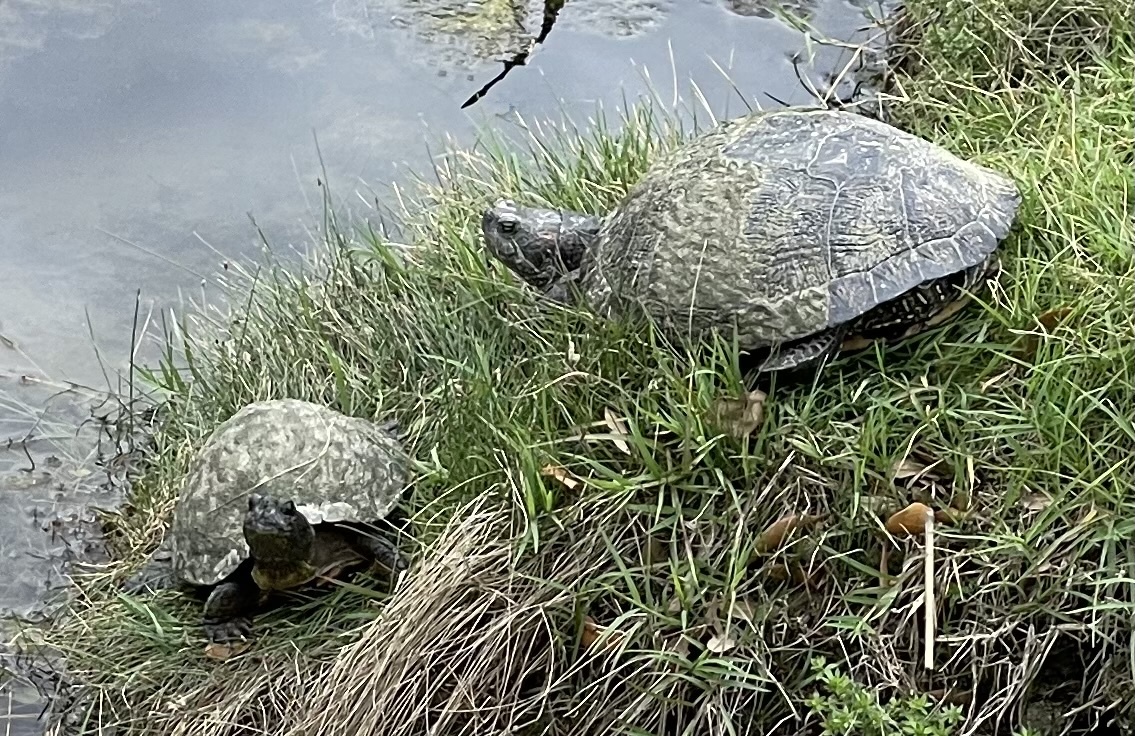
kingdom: Animalia
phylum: Chordata
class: Testudines
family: Emydidae
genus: Trachemys
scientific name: Trachemys scripta
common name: Slider
